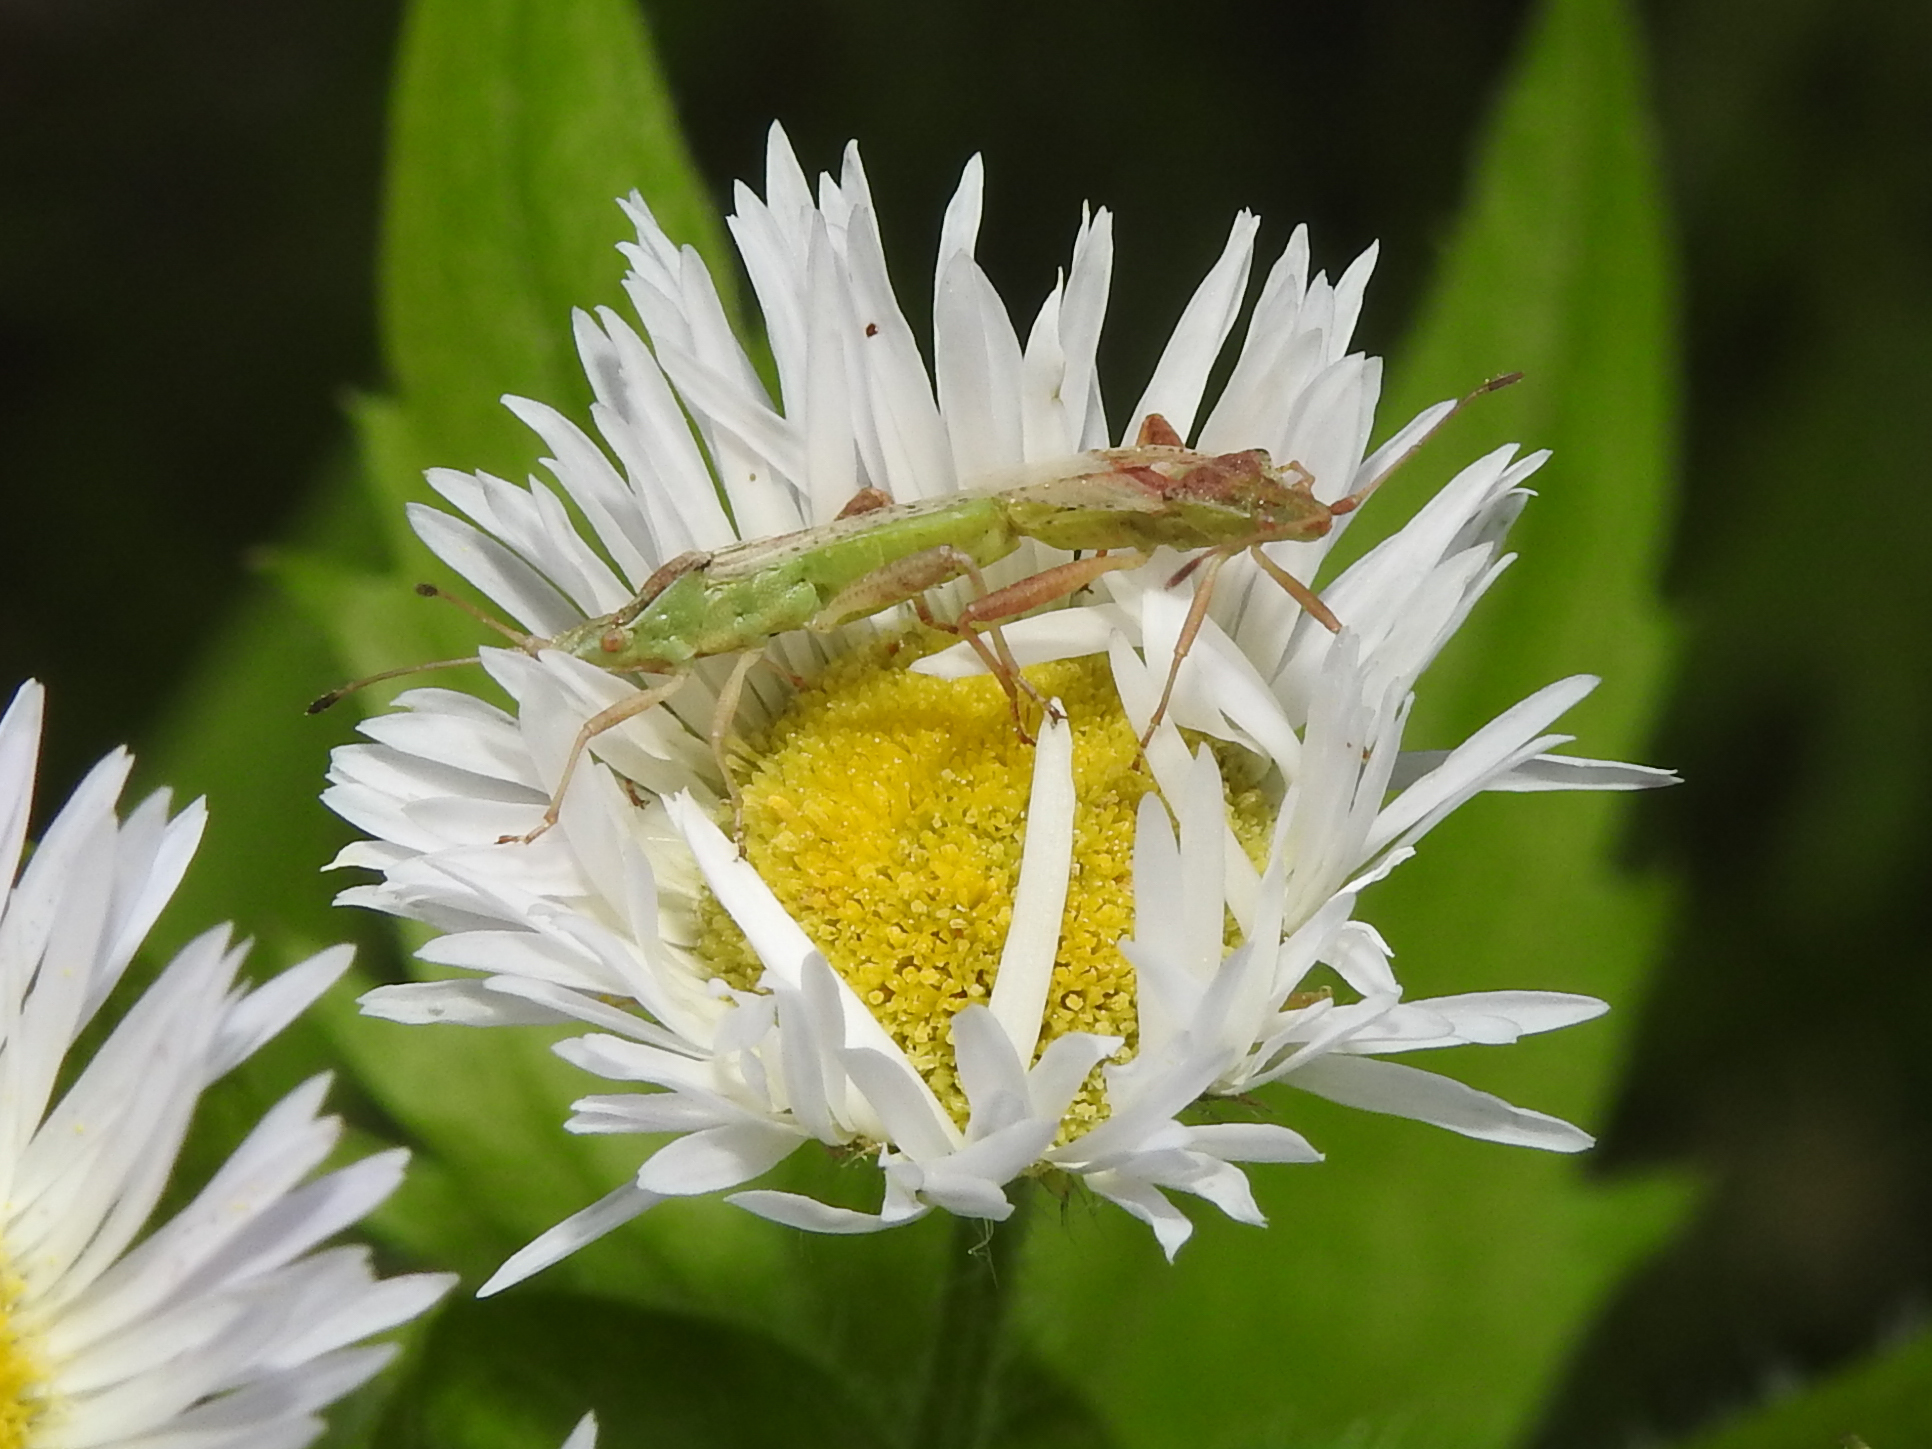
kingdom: Animalia
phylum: Arthropoda
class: Insecta
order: Hemiptera
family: Rhopalidae
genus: Harmostes
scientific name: Harmostes reflexulus
